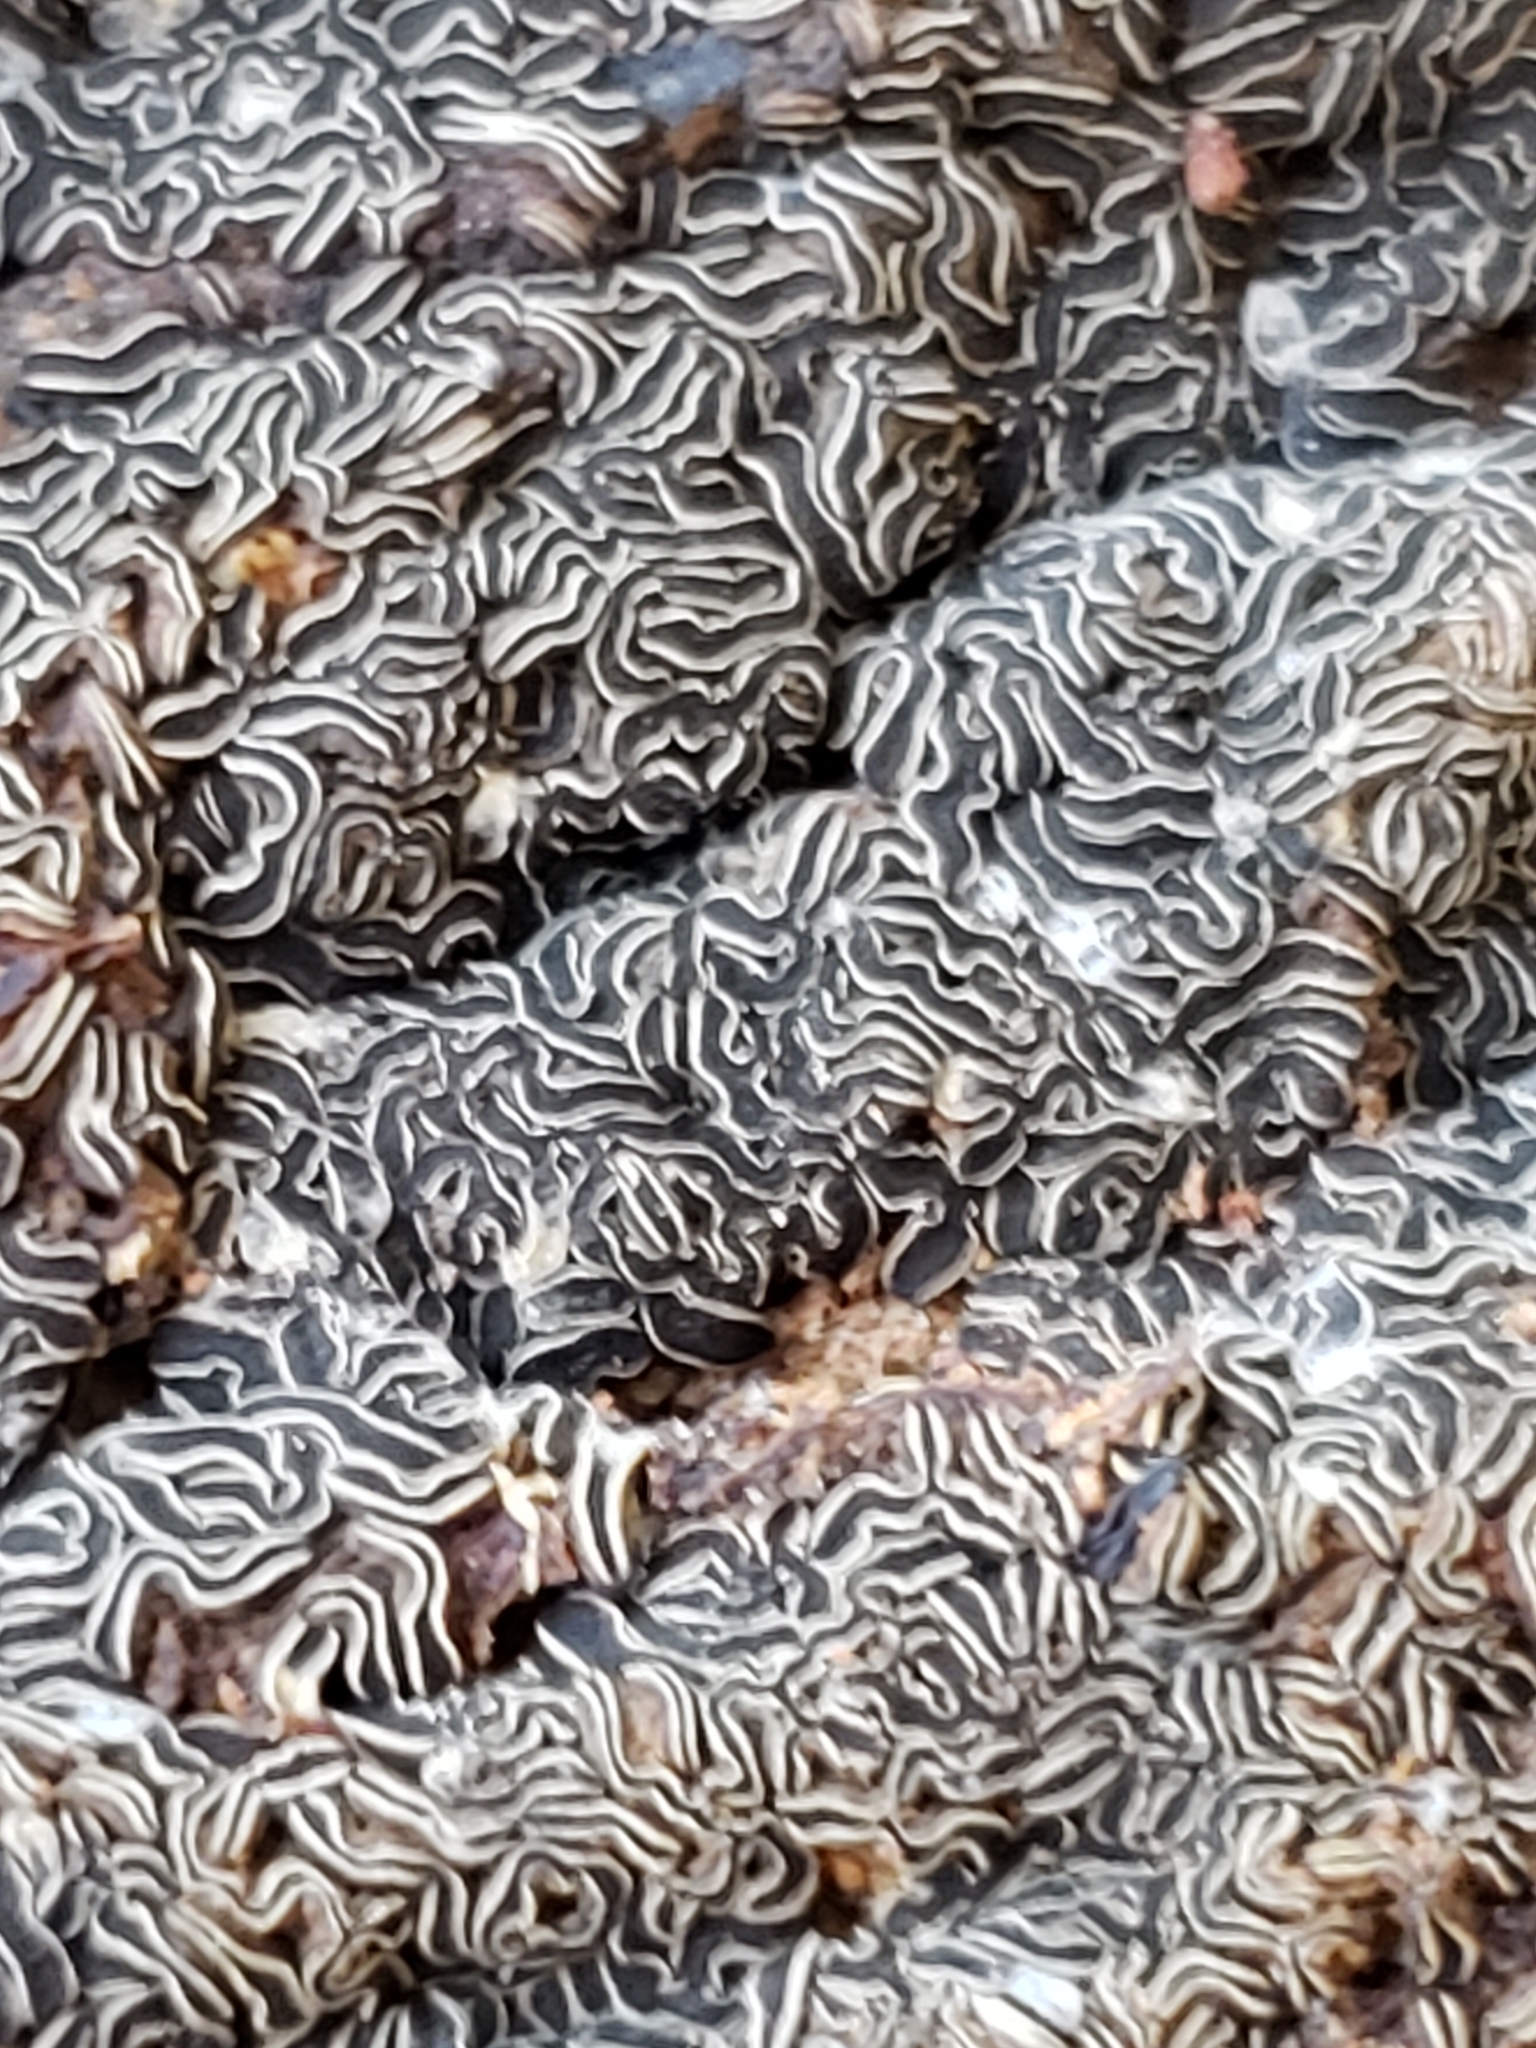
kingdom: Fungi
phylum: Ascomycota
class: Leotiomycetes
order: Helotiales
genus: Angelina
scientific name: Angelina rufescens
